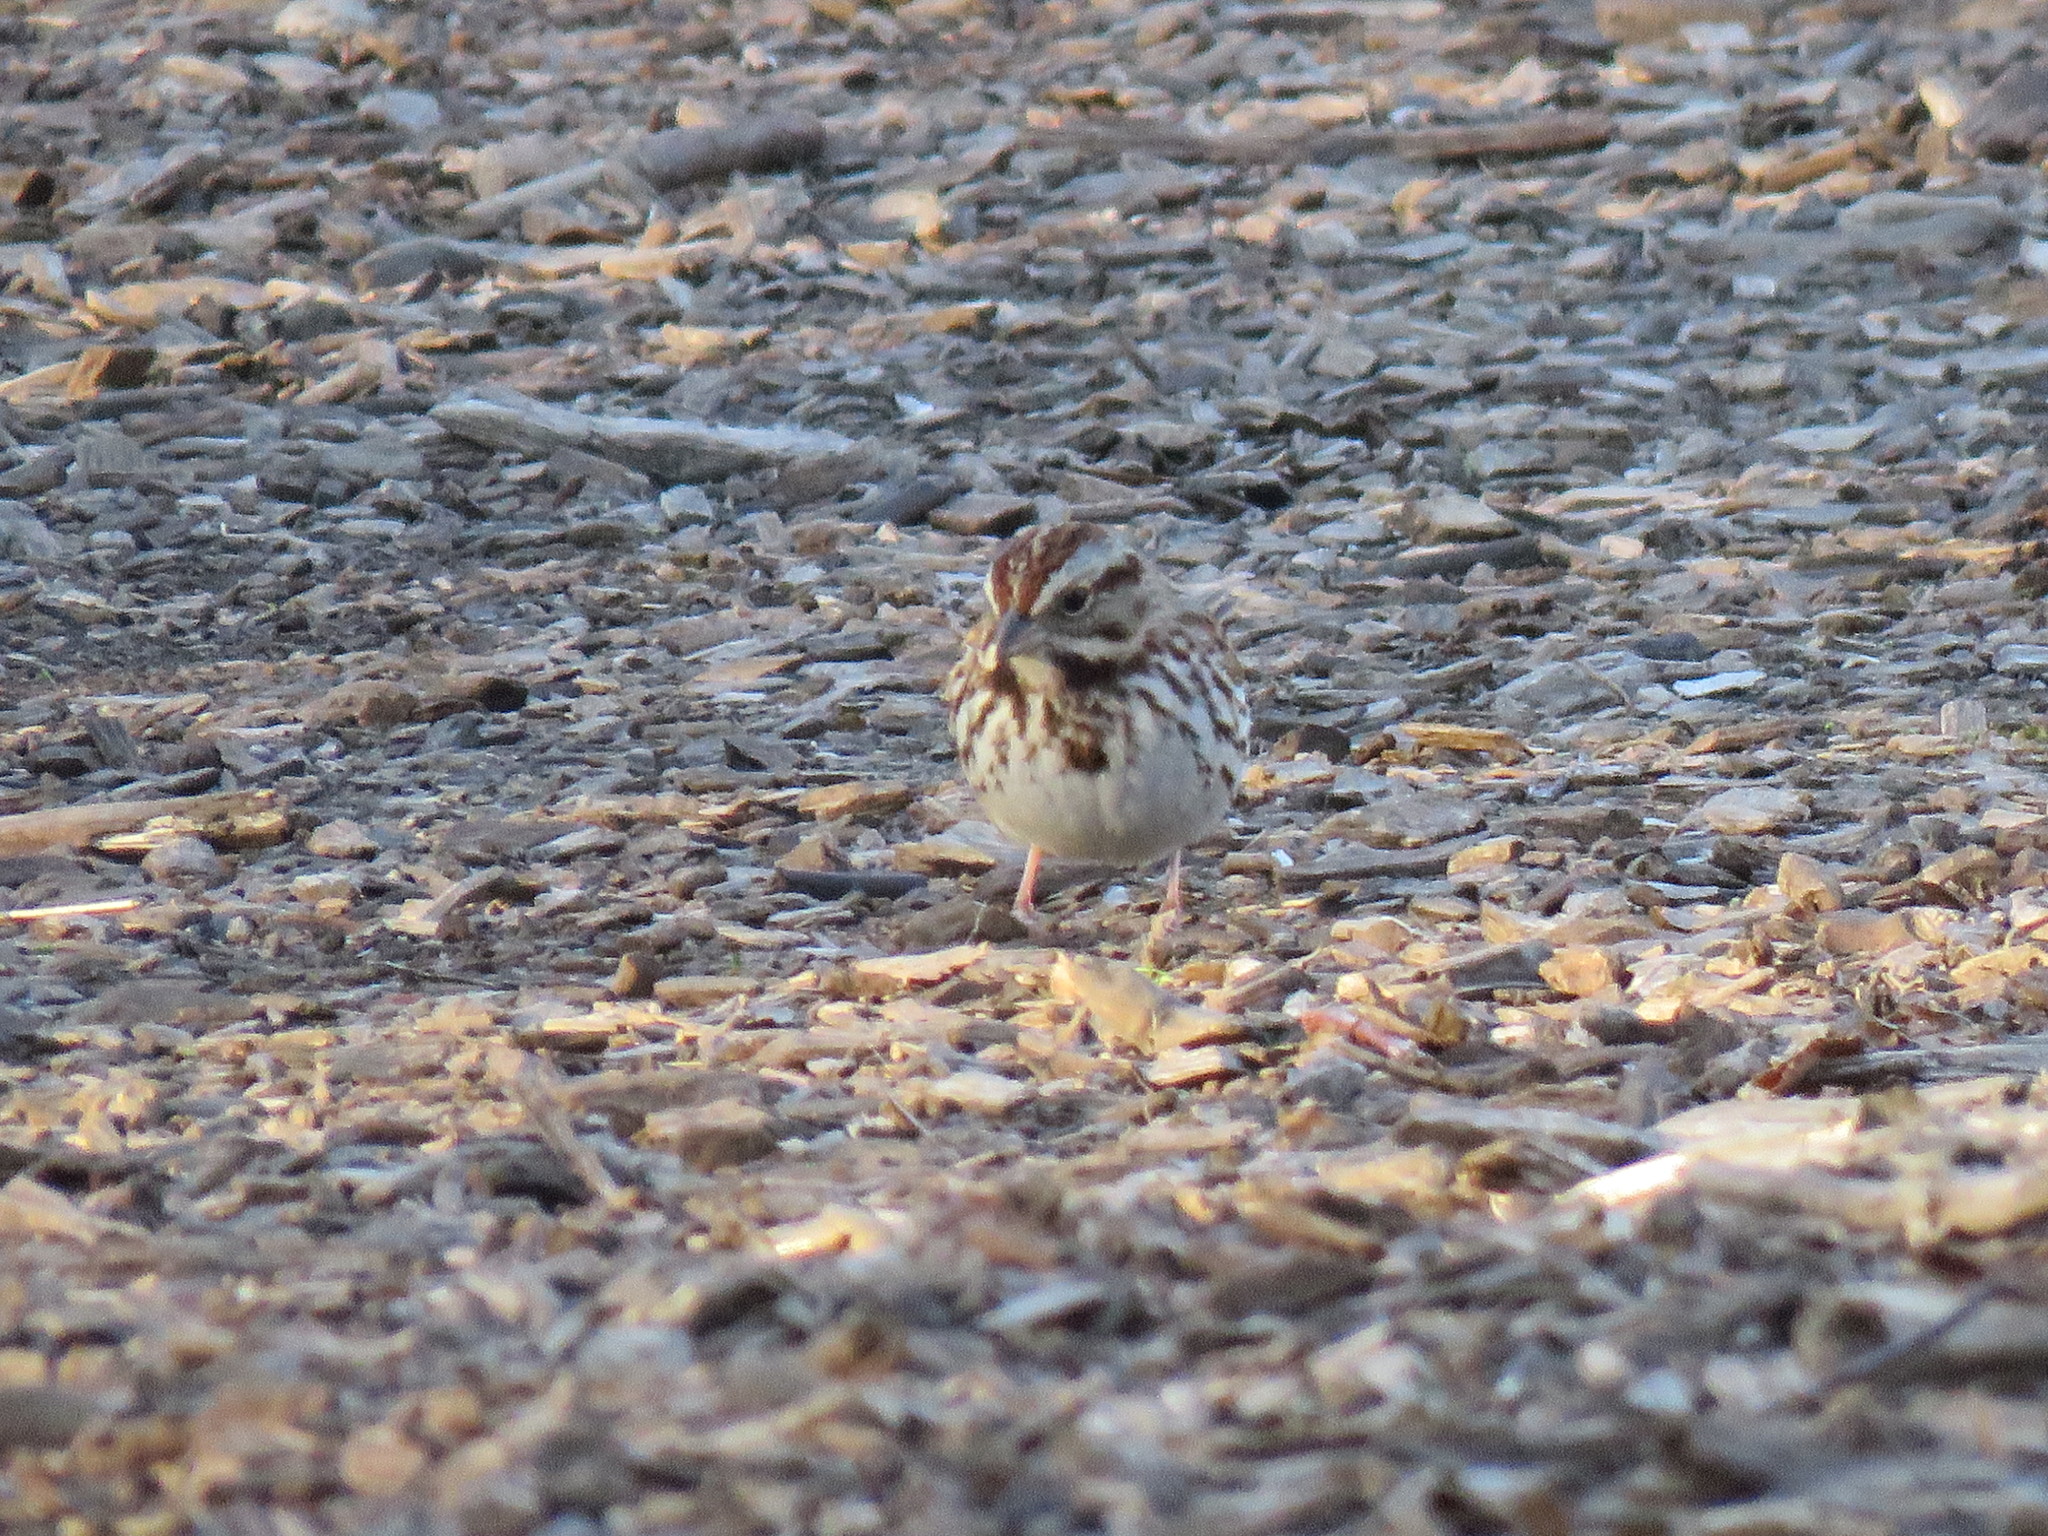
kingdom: Animalia
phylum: Chordata
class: Aves
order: Passeriformes
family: Passerellidae
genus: Melospiza
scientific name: Melospiza melodia
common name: Song sparrow
